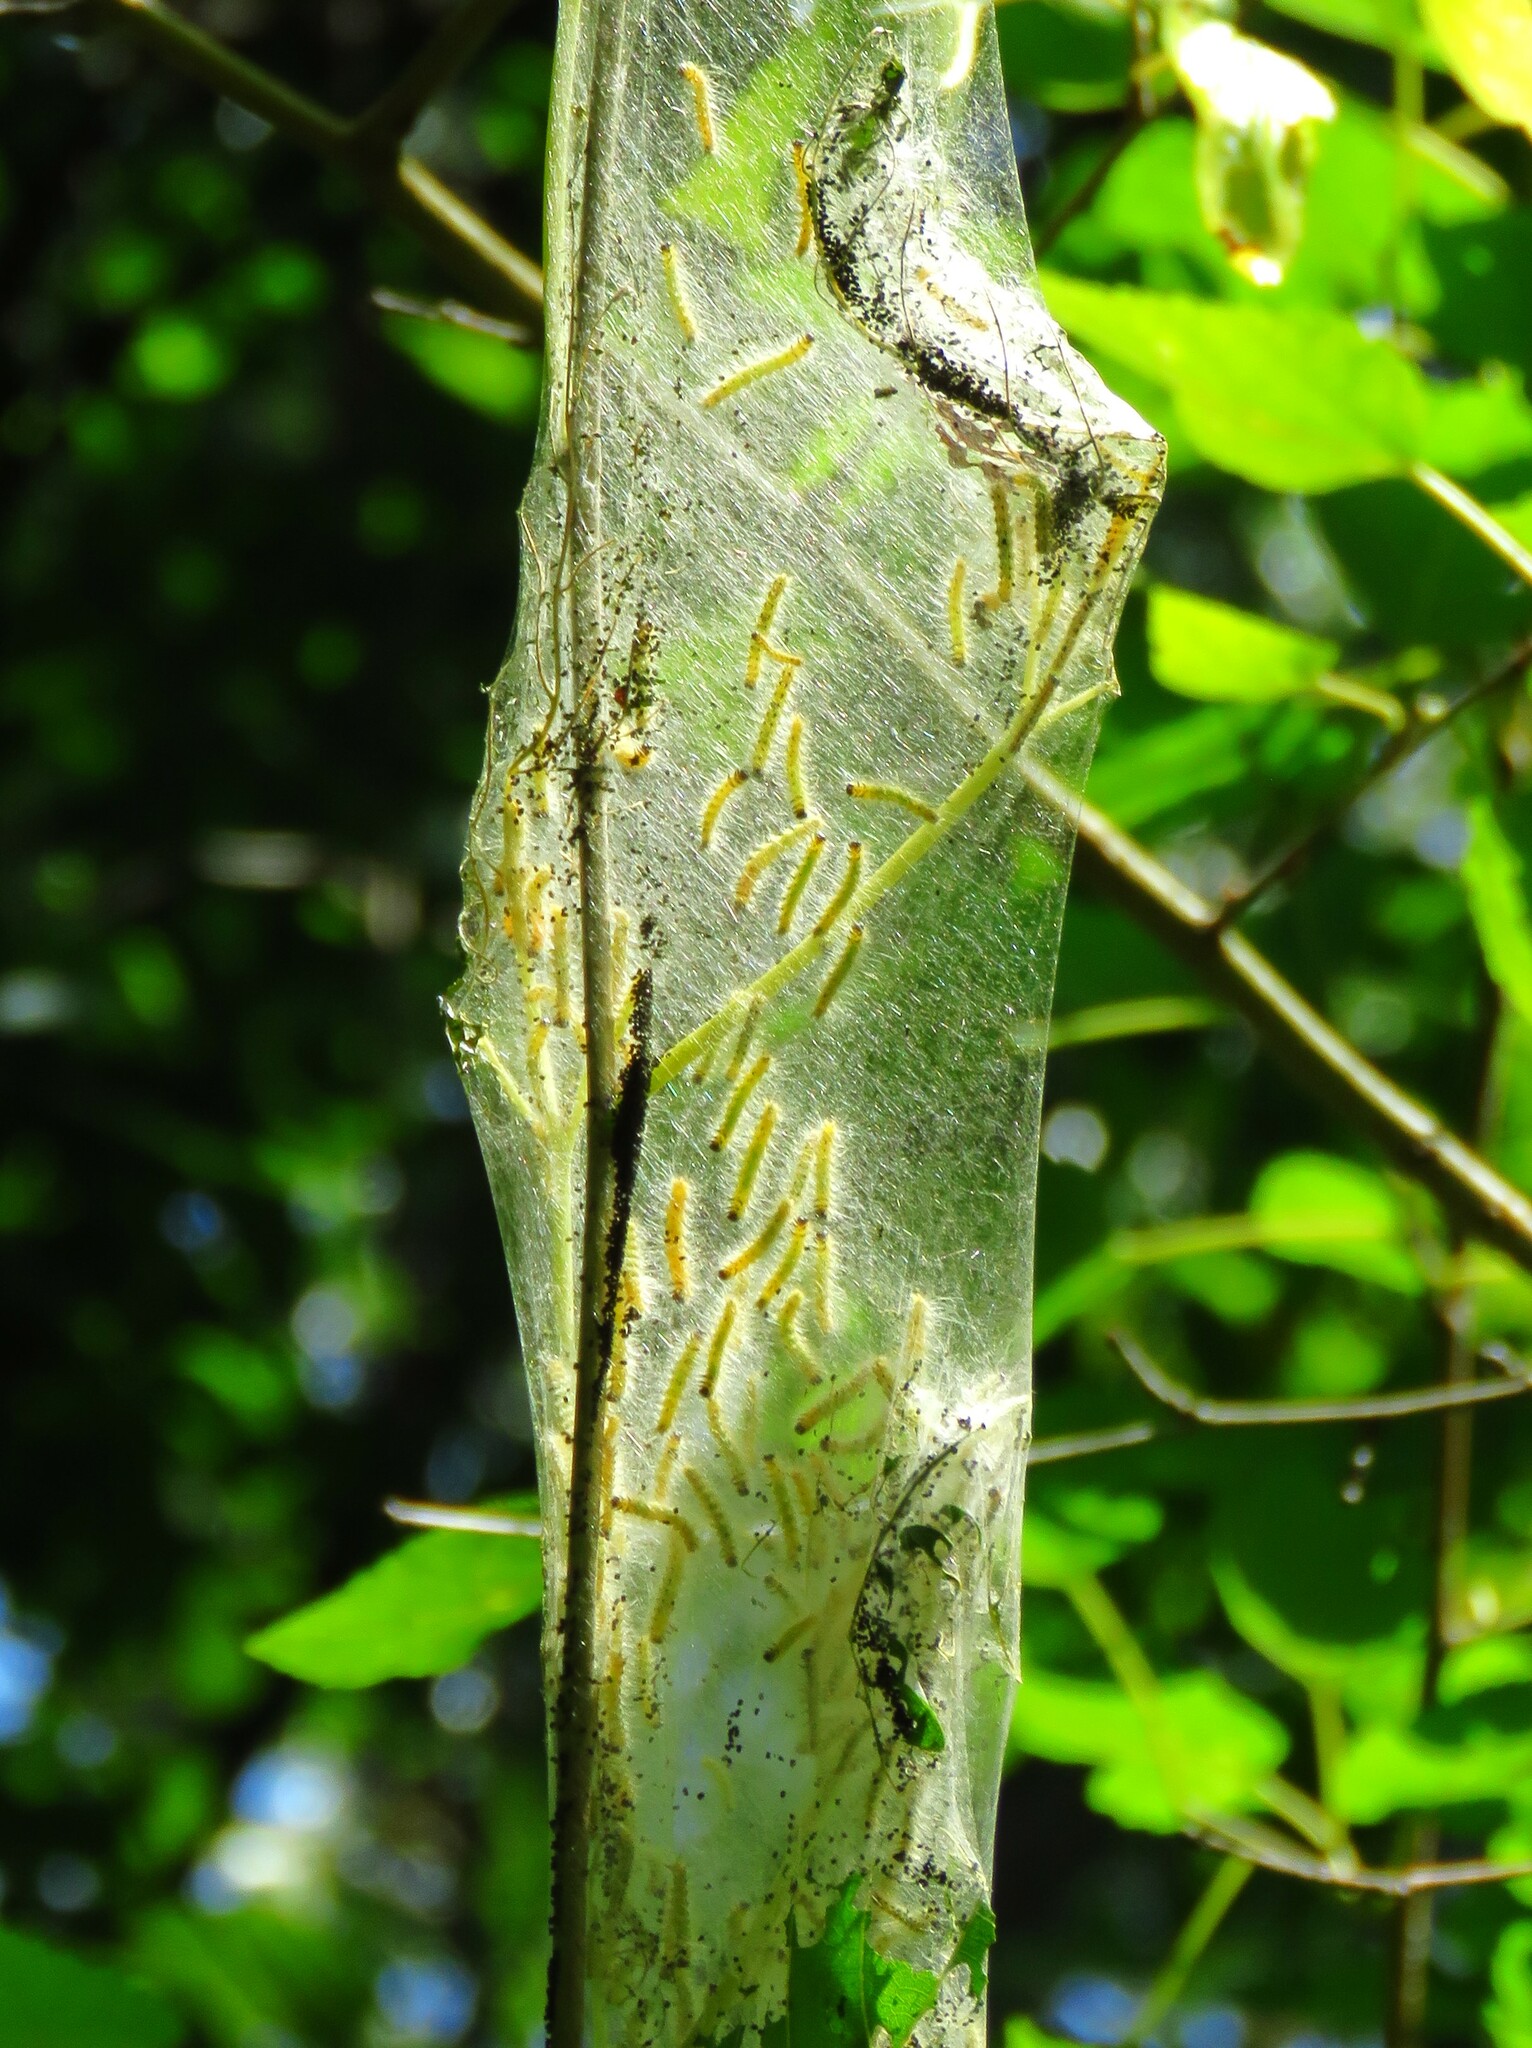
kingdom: Animalia
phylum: Arthropoda
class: Insecta
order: Lepidoptera
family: Erebidae
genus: Hyphantria
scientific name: Hyphantria cunea
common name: American white moth
